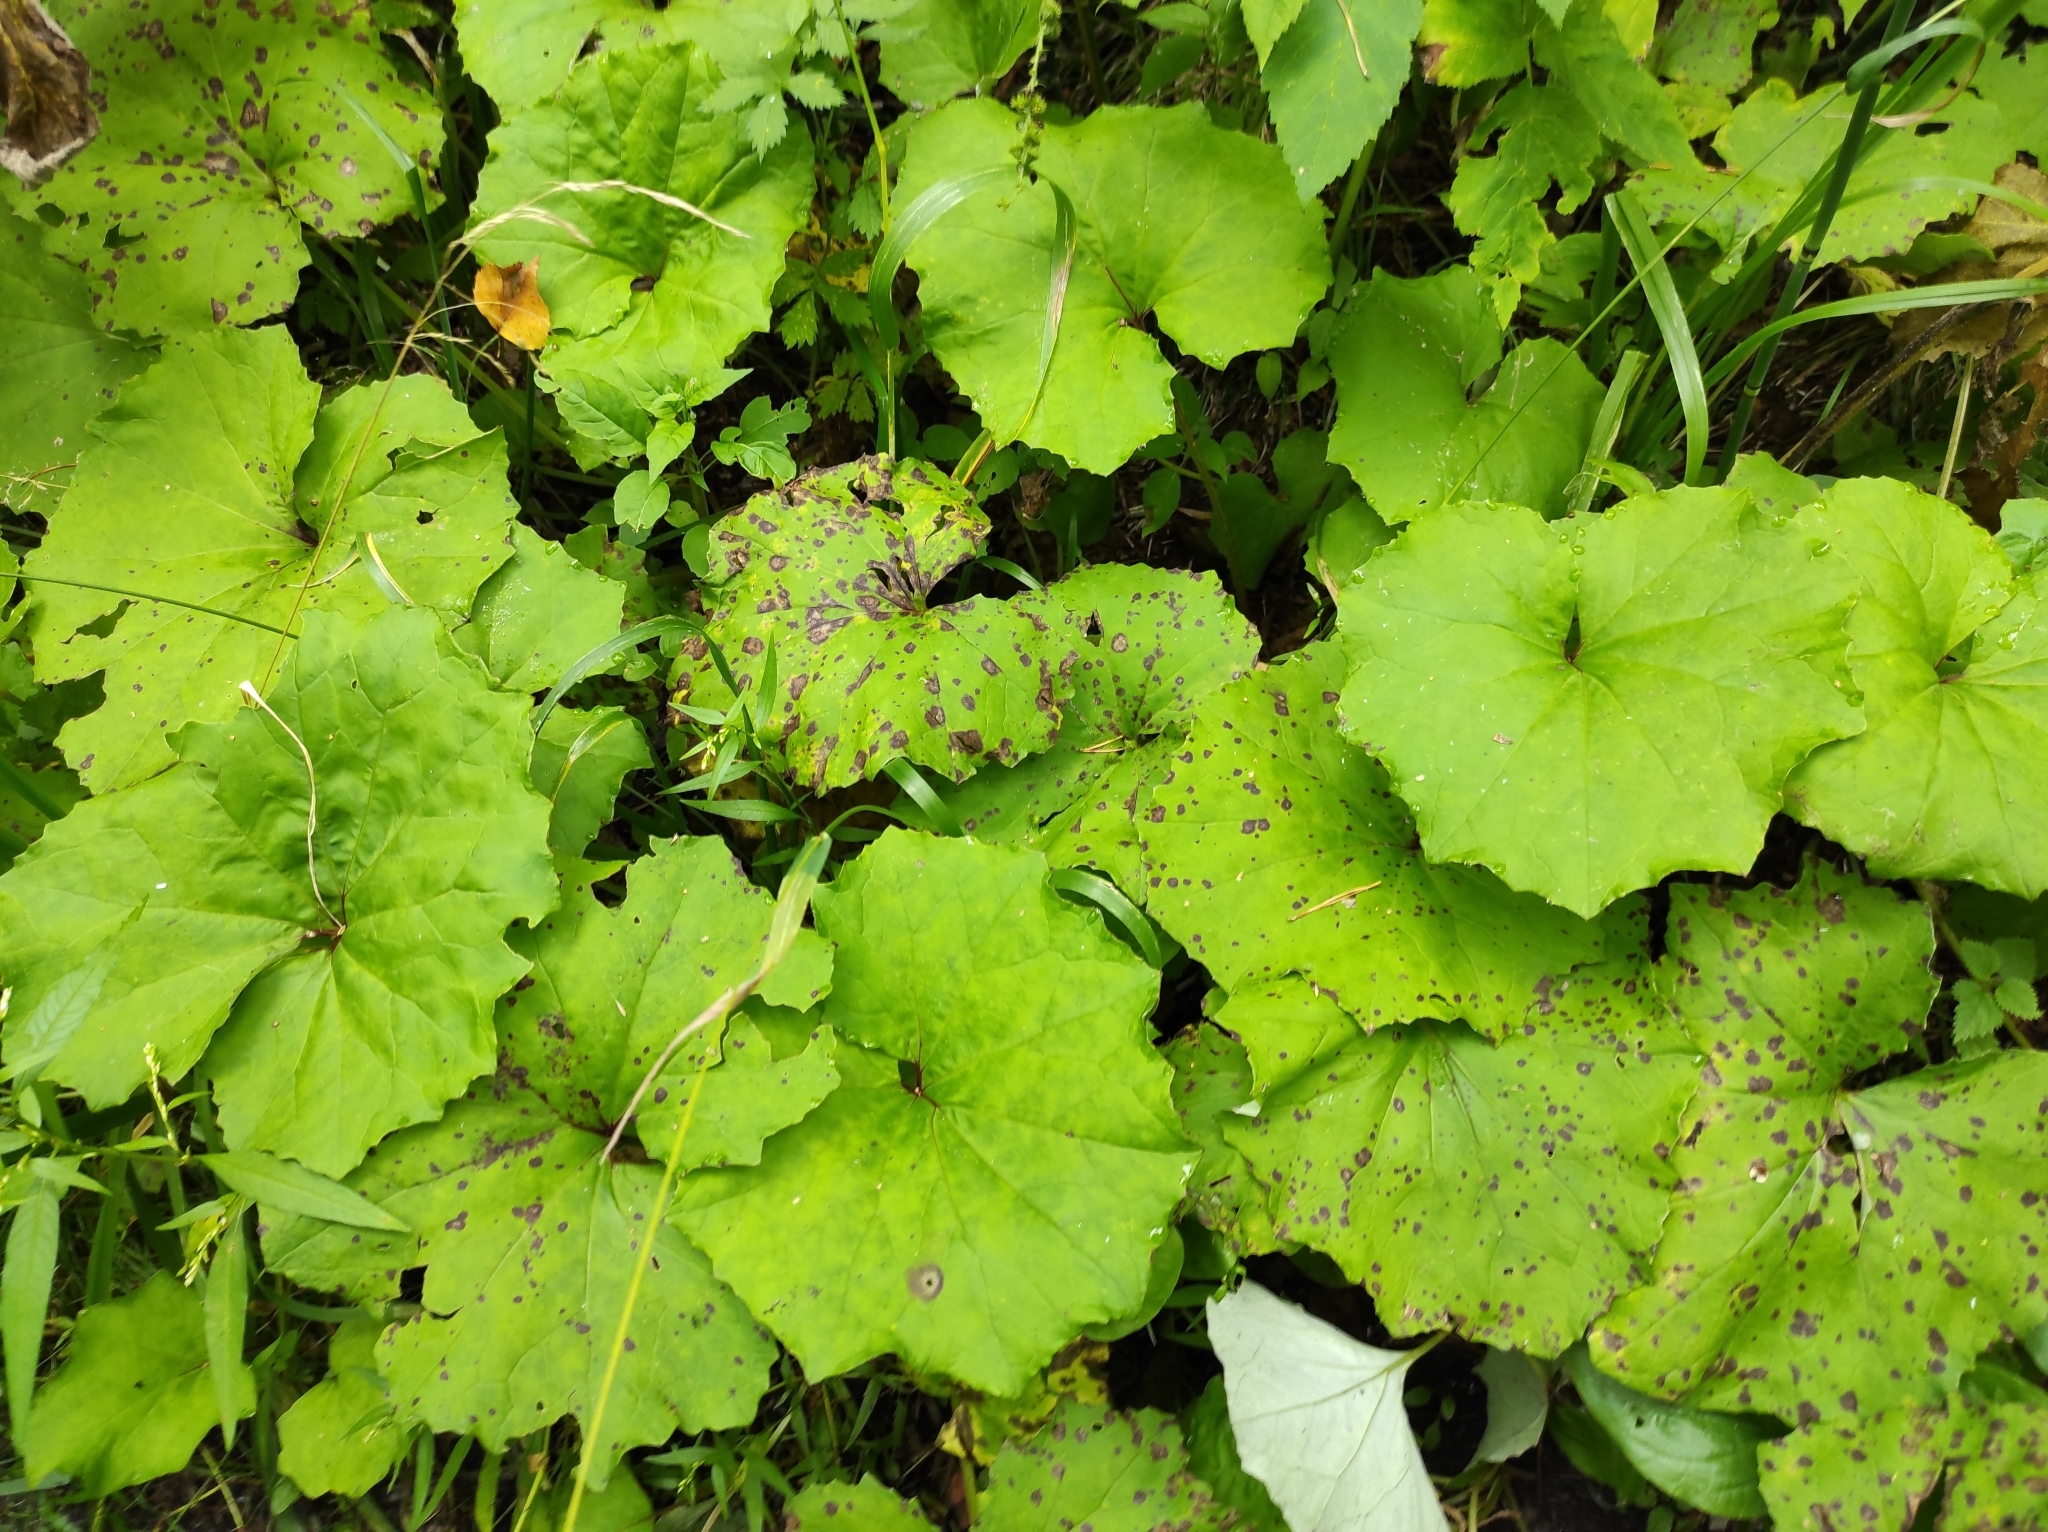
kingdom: Plantae
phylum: Tracheophyta
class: Magnoliopsida
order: Asterales
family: Asteraceae
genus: Tussilago
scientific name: Tussilago farfara
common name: Coltsfoot
